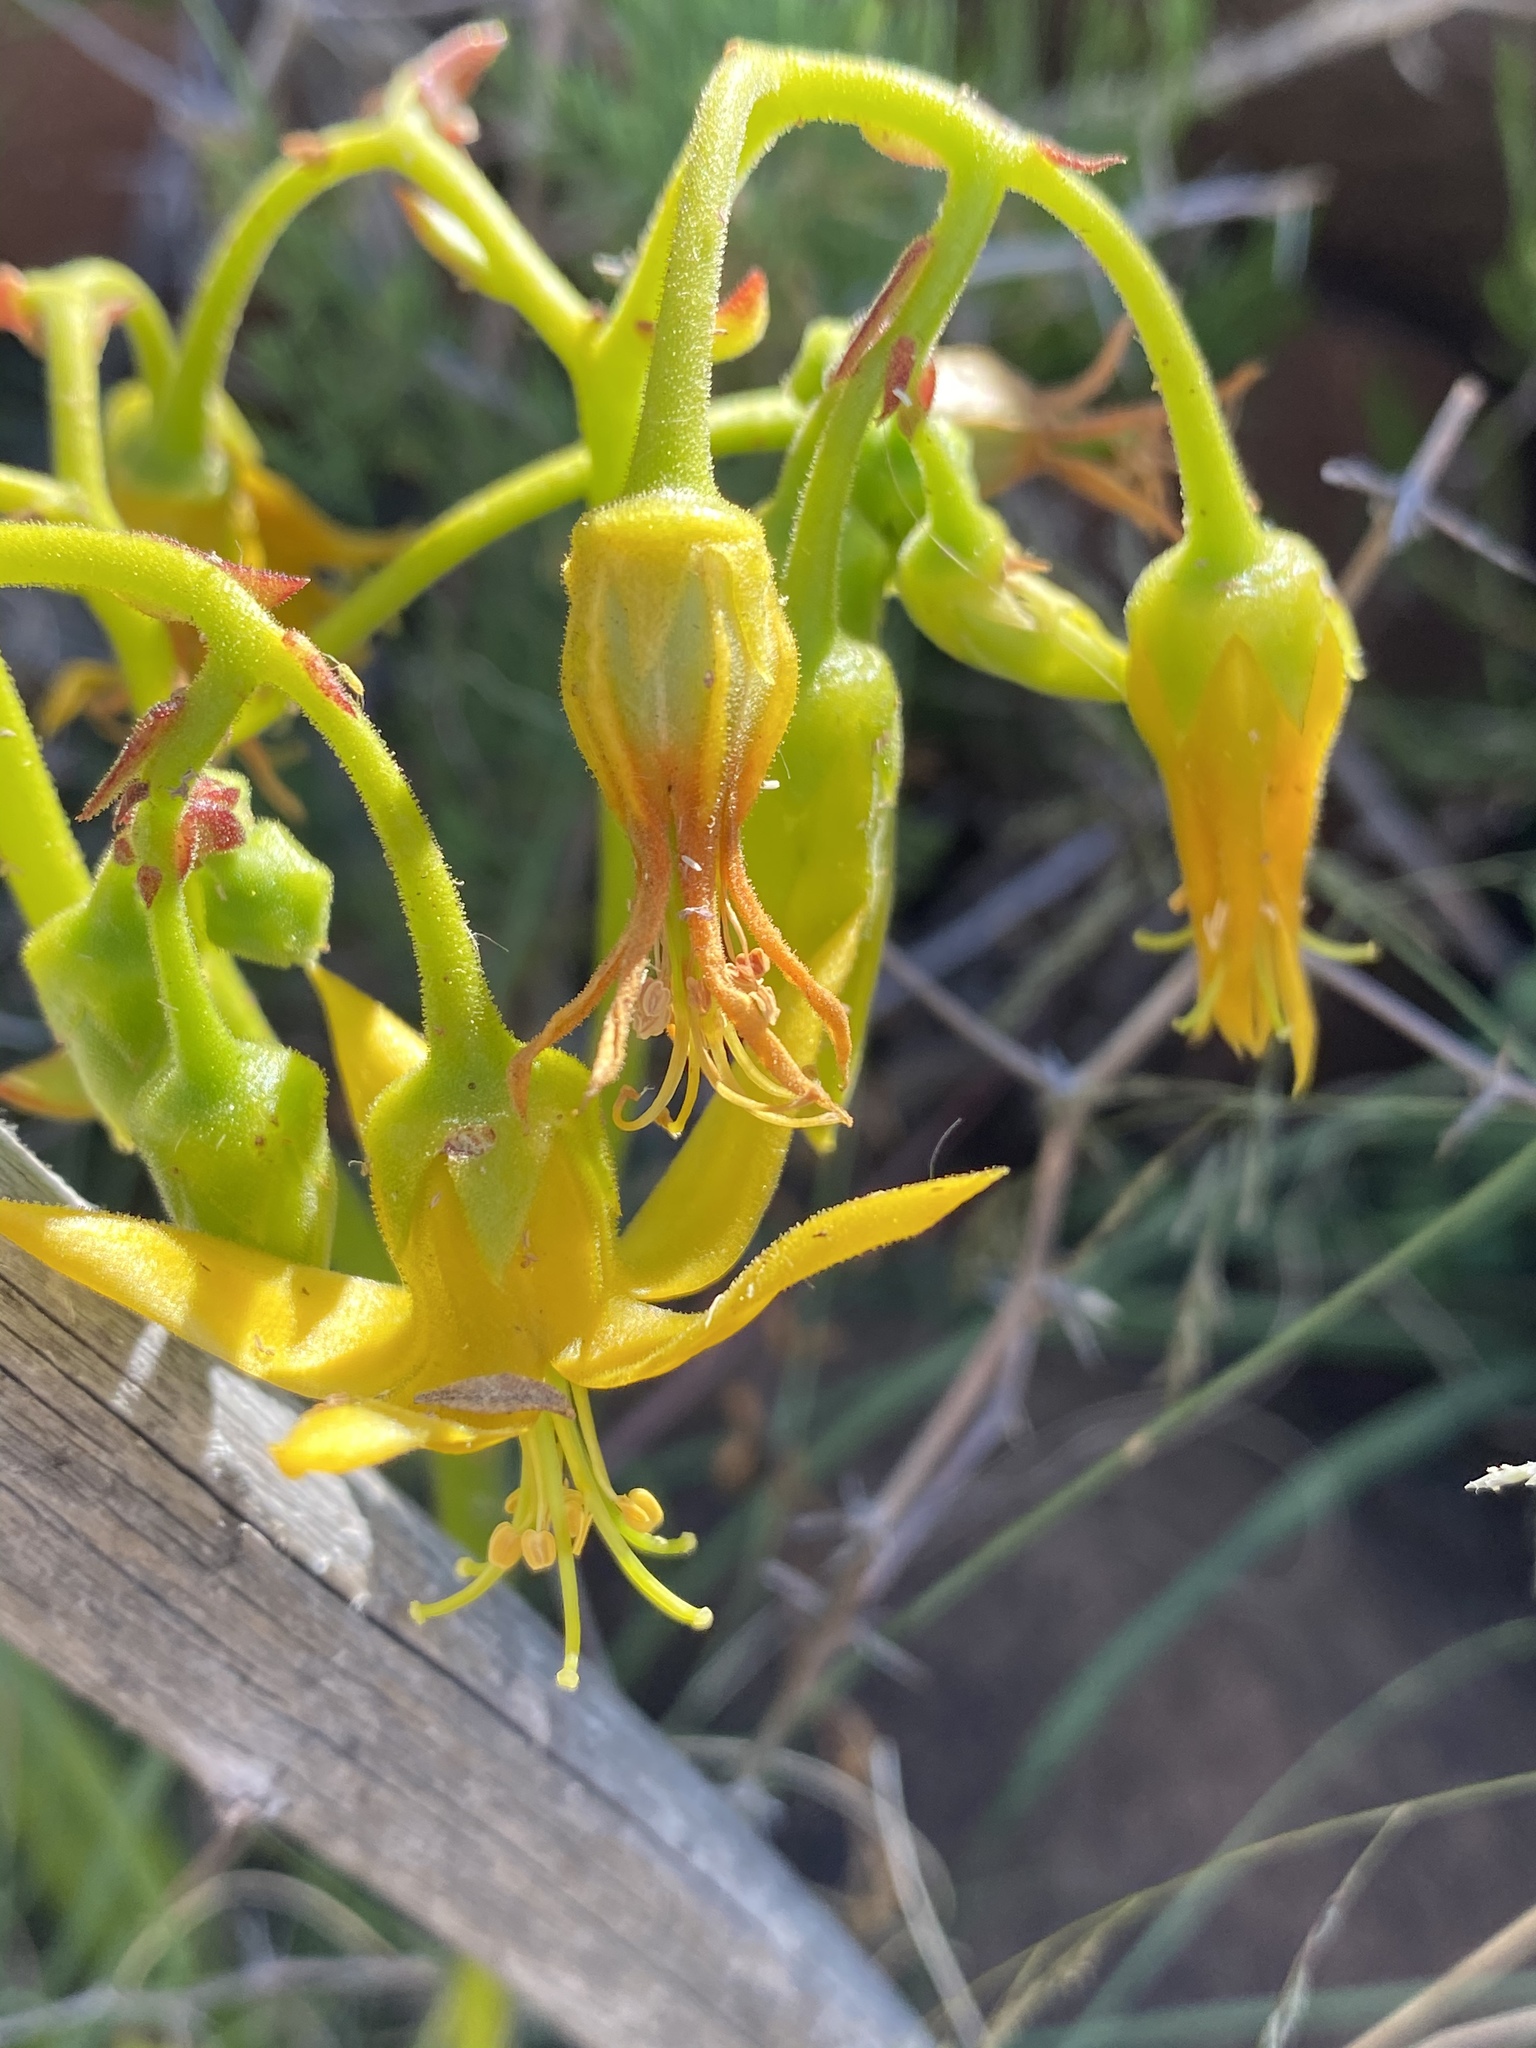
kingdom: Plantae
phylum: Tracheophyta
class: Magnoliopsida
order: Saxifragales
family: Crassulaceae
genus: Cotyledon
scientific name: Cotyledon campanulata
